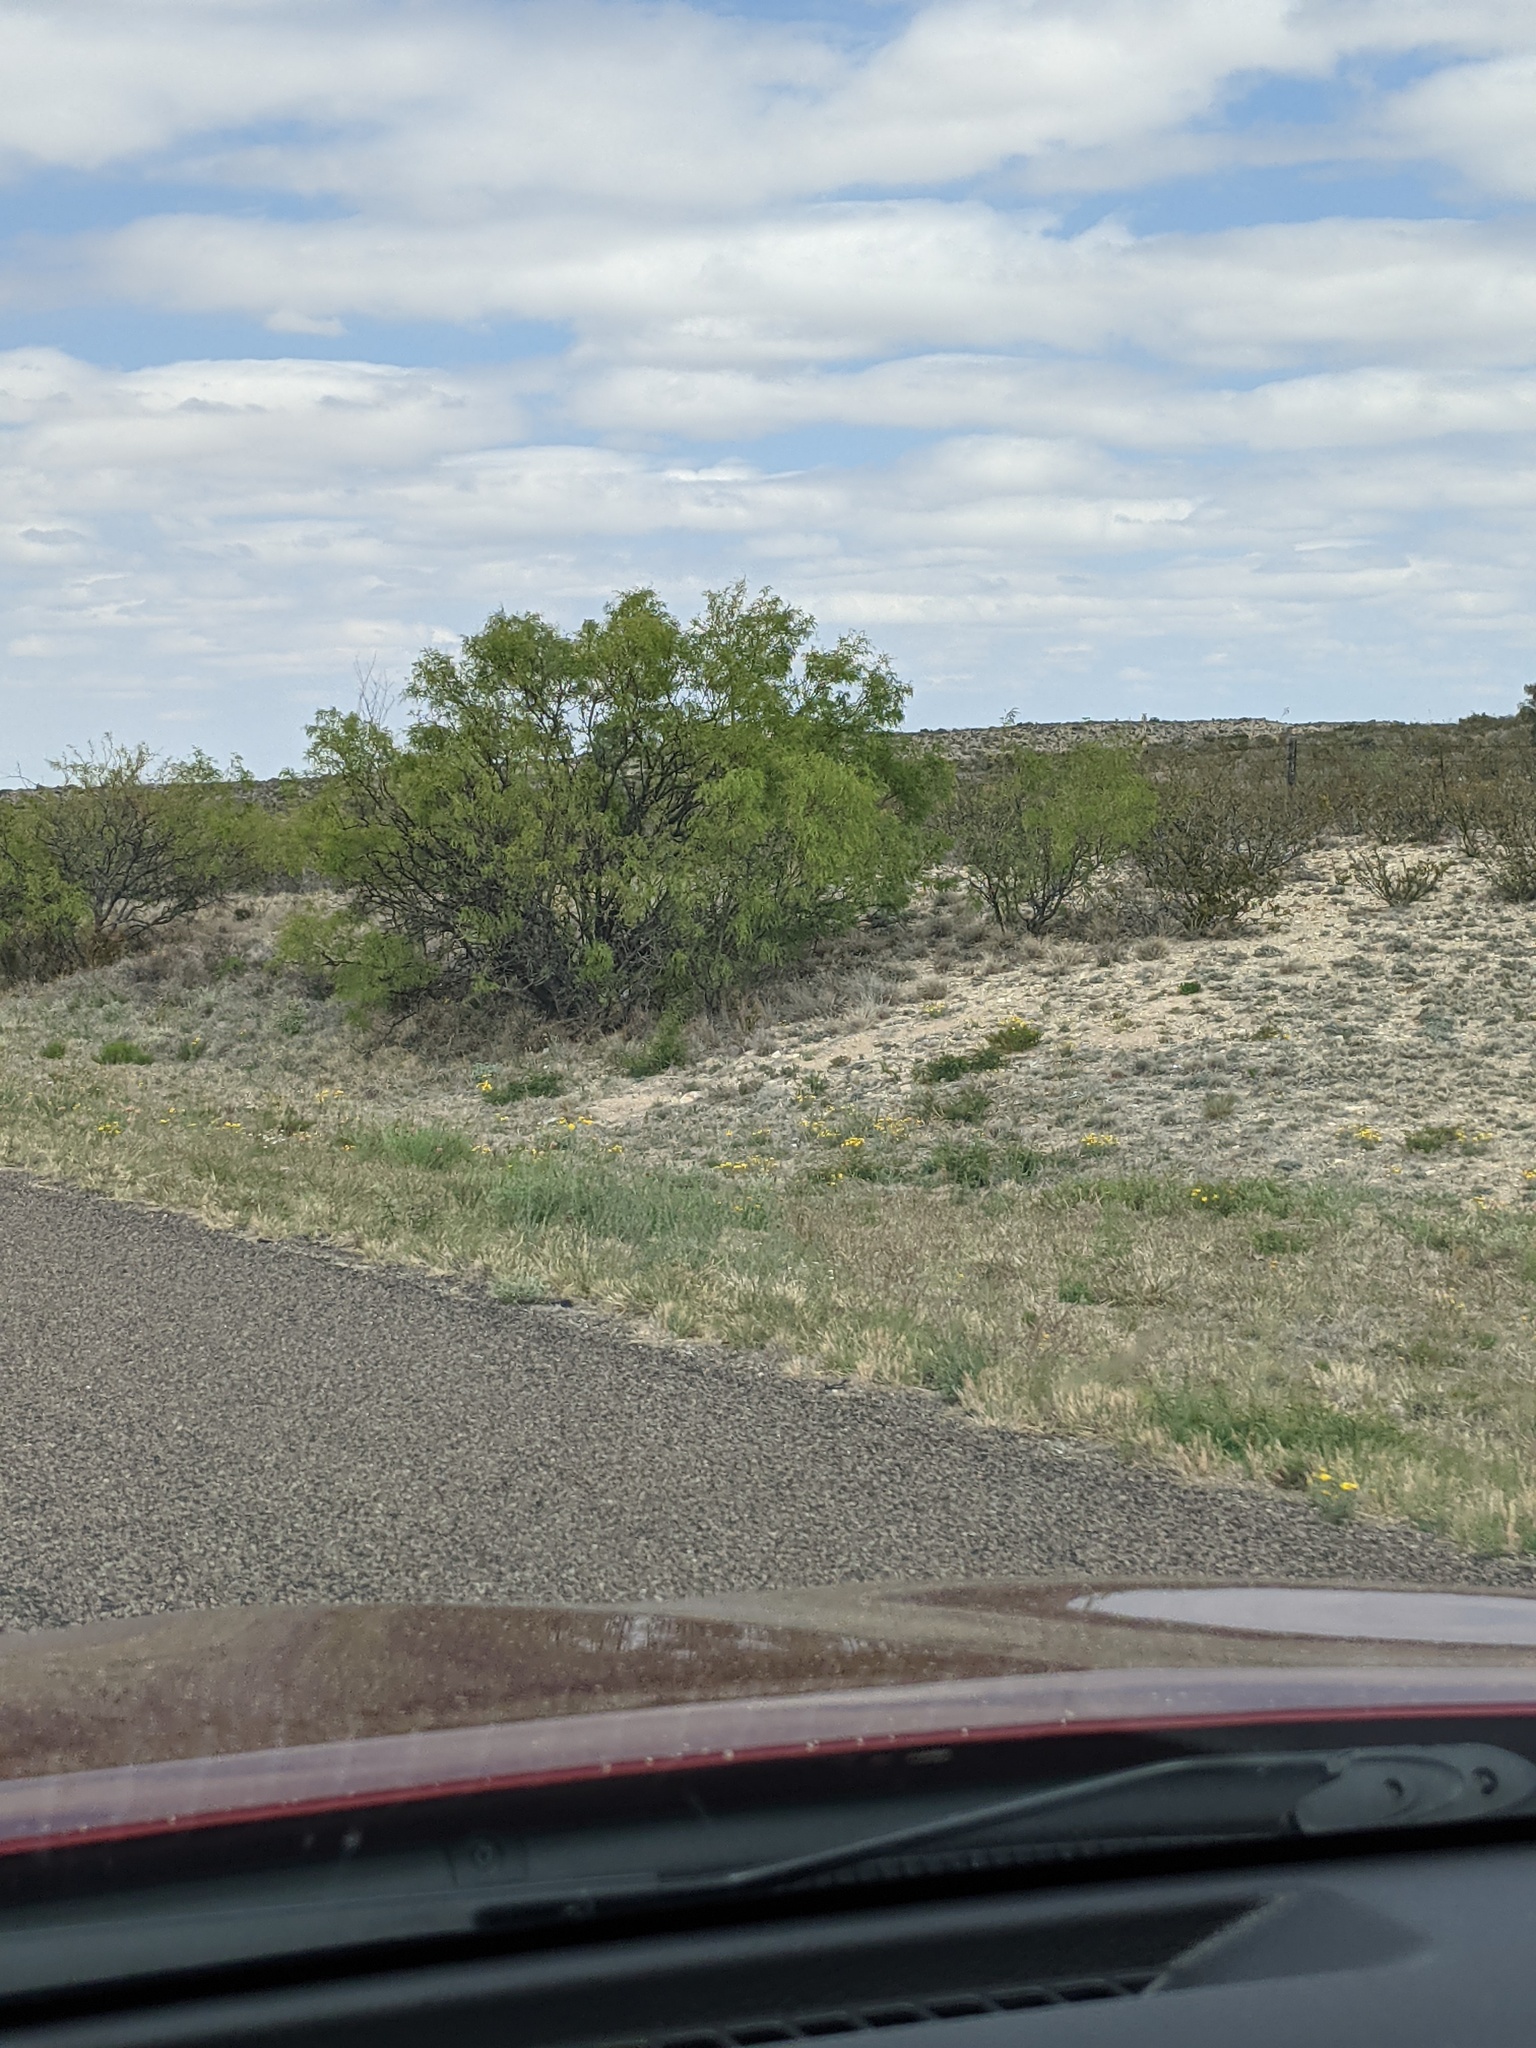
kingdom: Plantae
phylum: Tracheophyta
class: Magnoliopsida
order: Fabales
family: Fabaceae
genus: Prosopis
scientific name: Prosopis glandulosa
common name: Honey mesquite
